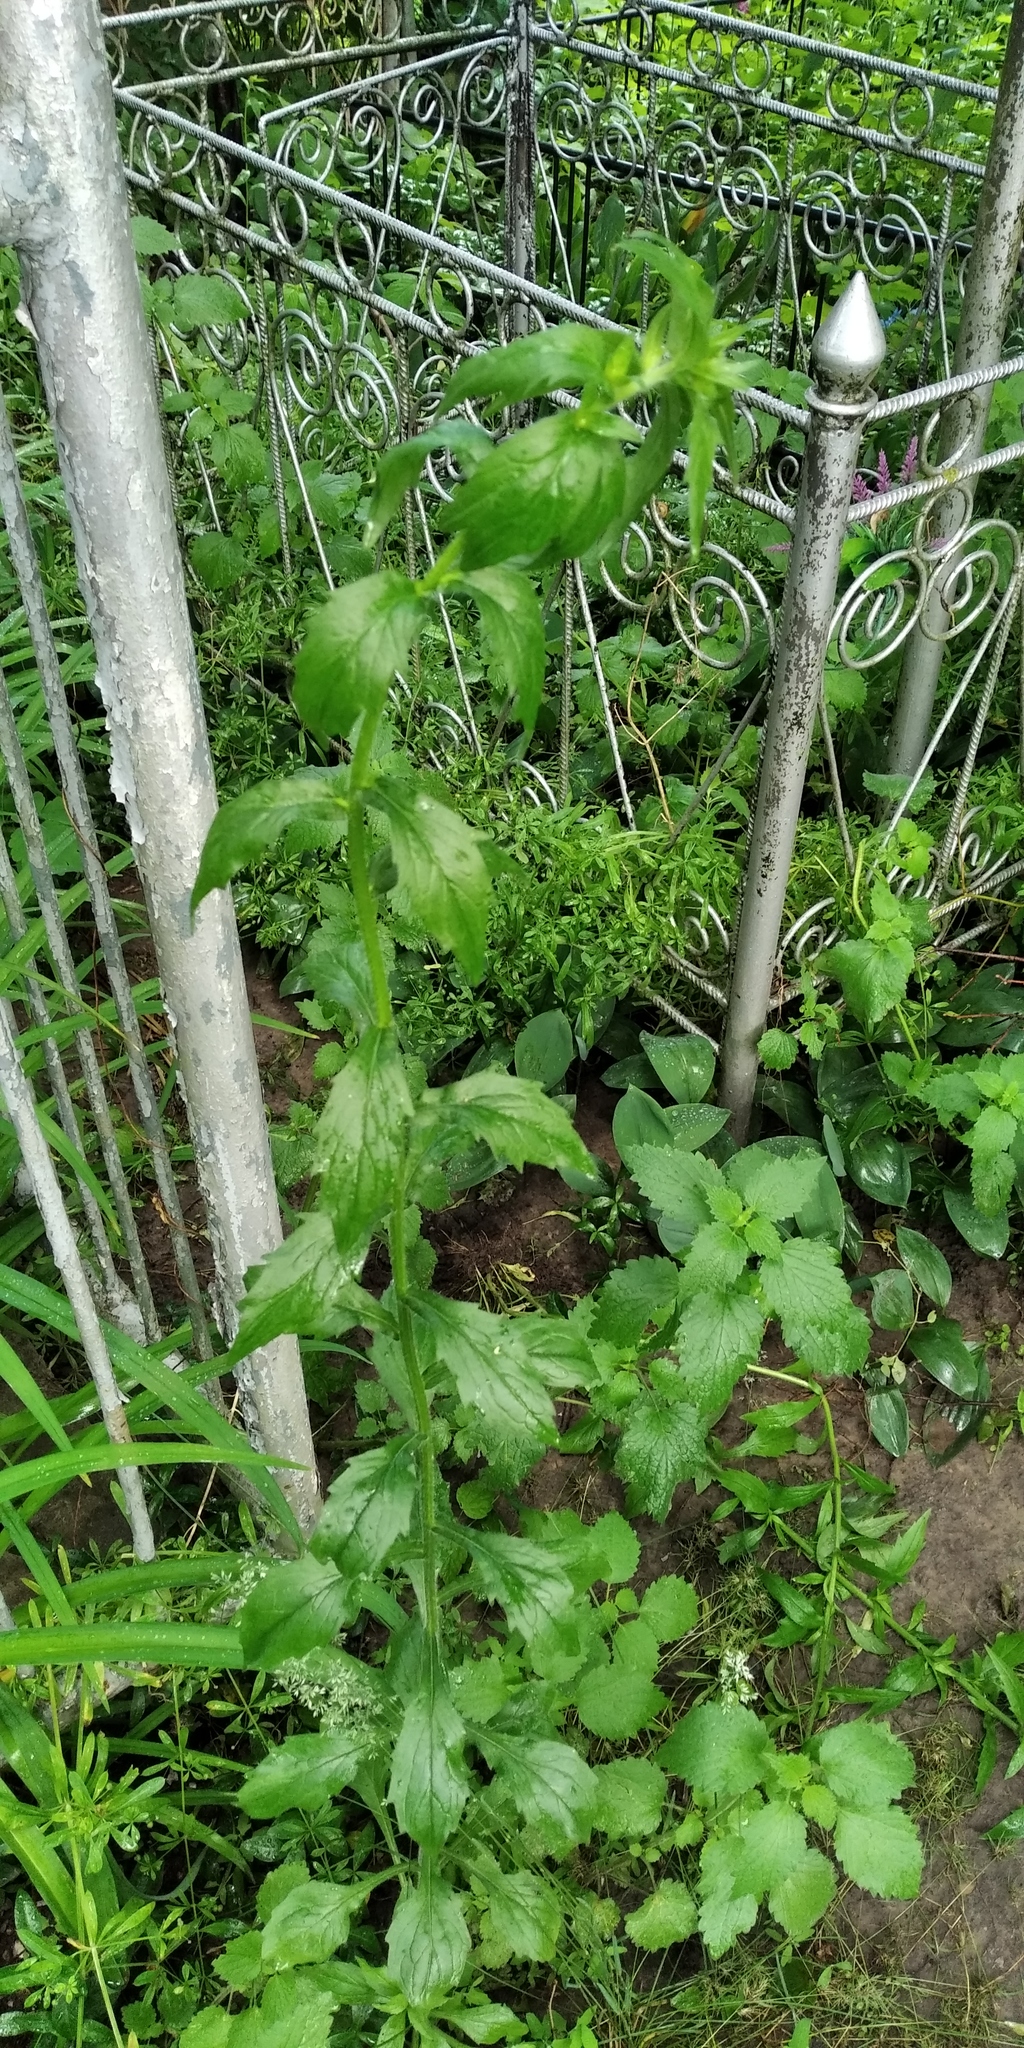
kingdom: Plantae
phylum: Tracheophyta
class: Magnoliopsida
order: Asterales
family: Asteraceae
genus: Erigeron
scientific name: Erigeron annuus
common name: Tall fleabane
